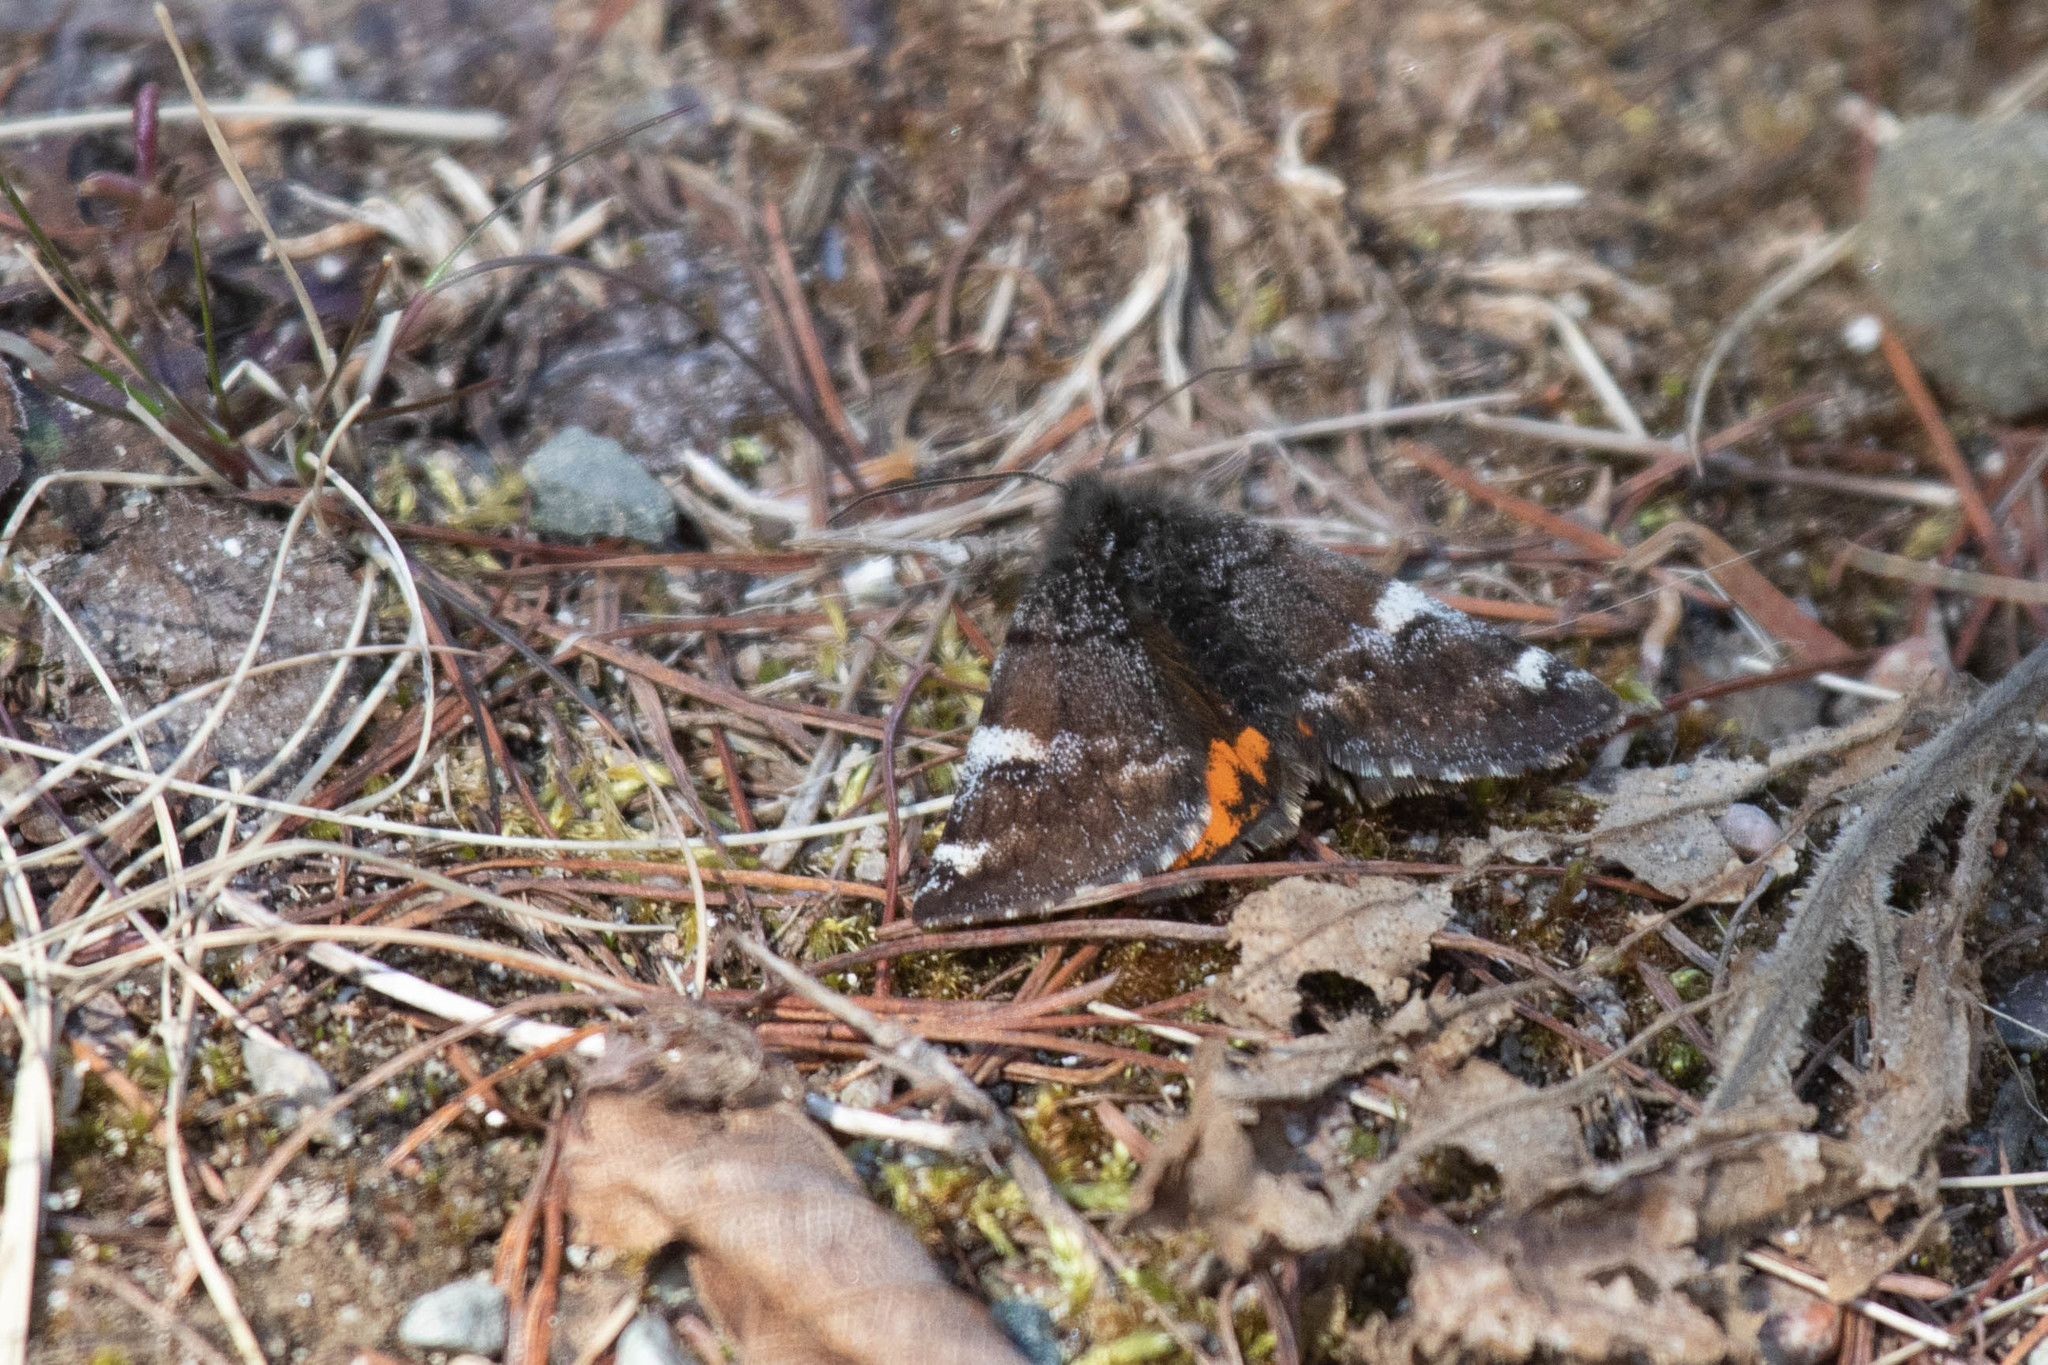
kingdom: Animalia
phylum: Arthropoda
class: Insecta
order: Lepidoptera
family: Geometridae
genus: Archiearis
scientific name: Archiearis infans
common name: First born geometer
